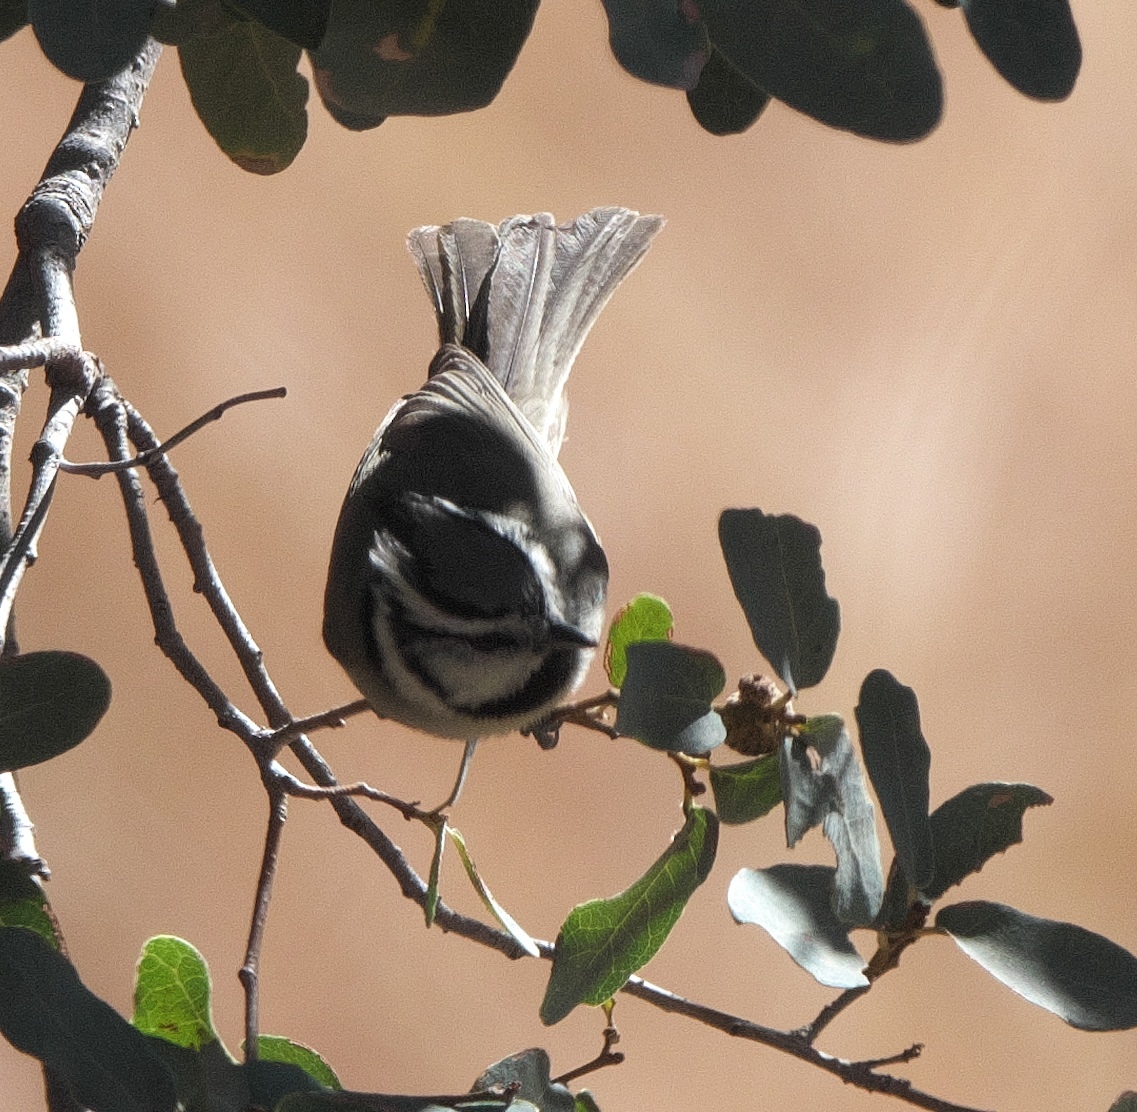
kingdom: Animalia
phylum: Chordata
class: Aves
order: Passeriformes
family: Paridae
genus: Baeolophus
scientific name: Baeolophus wollweberi
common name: Bridled titmouse
